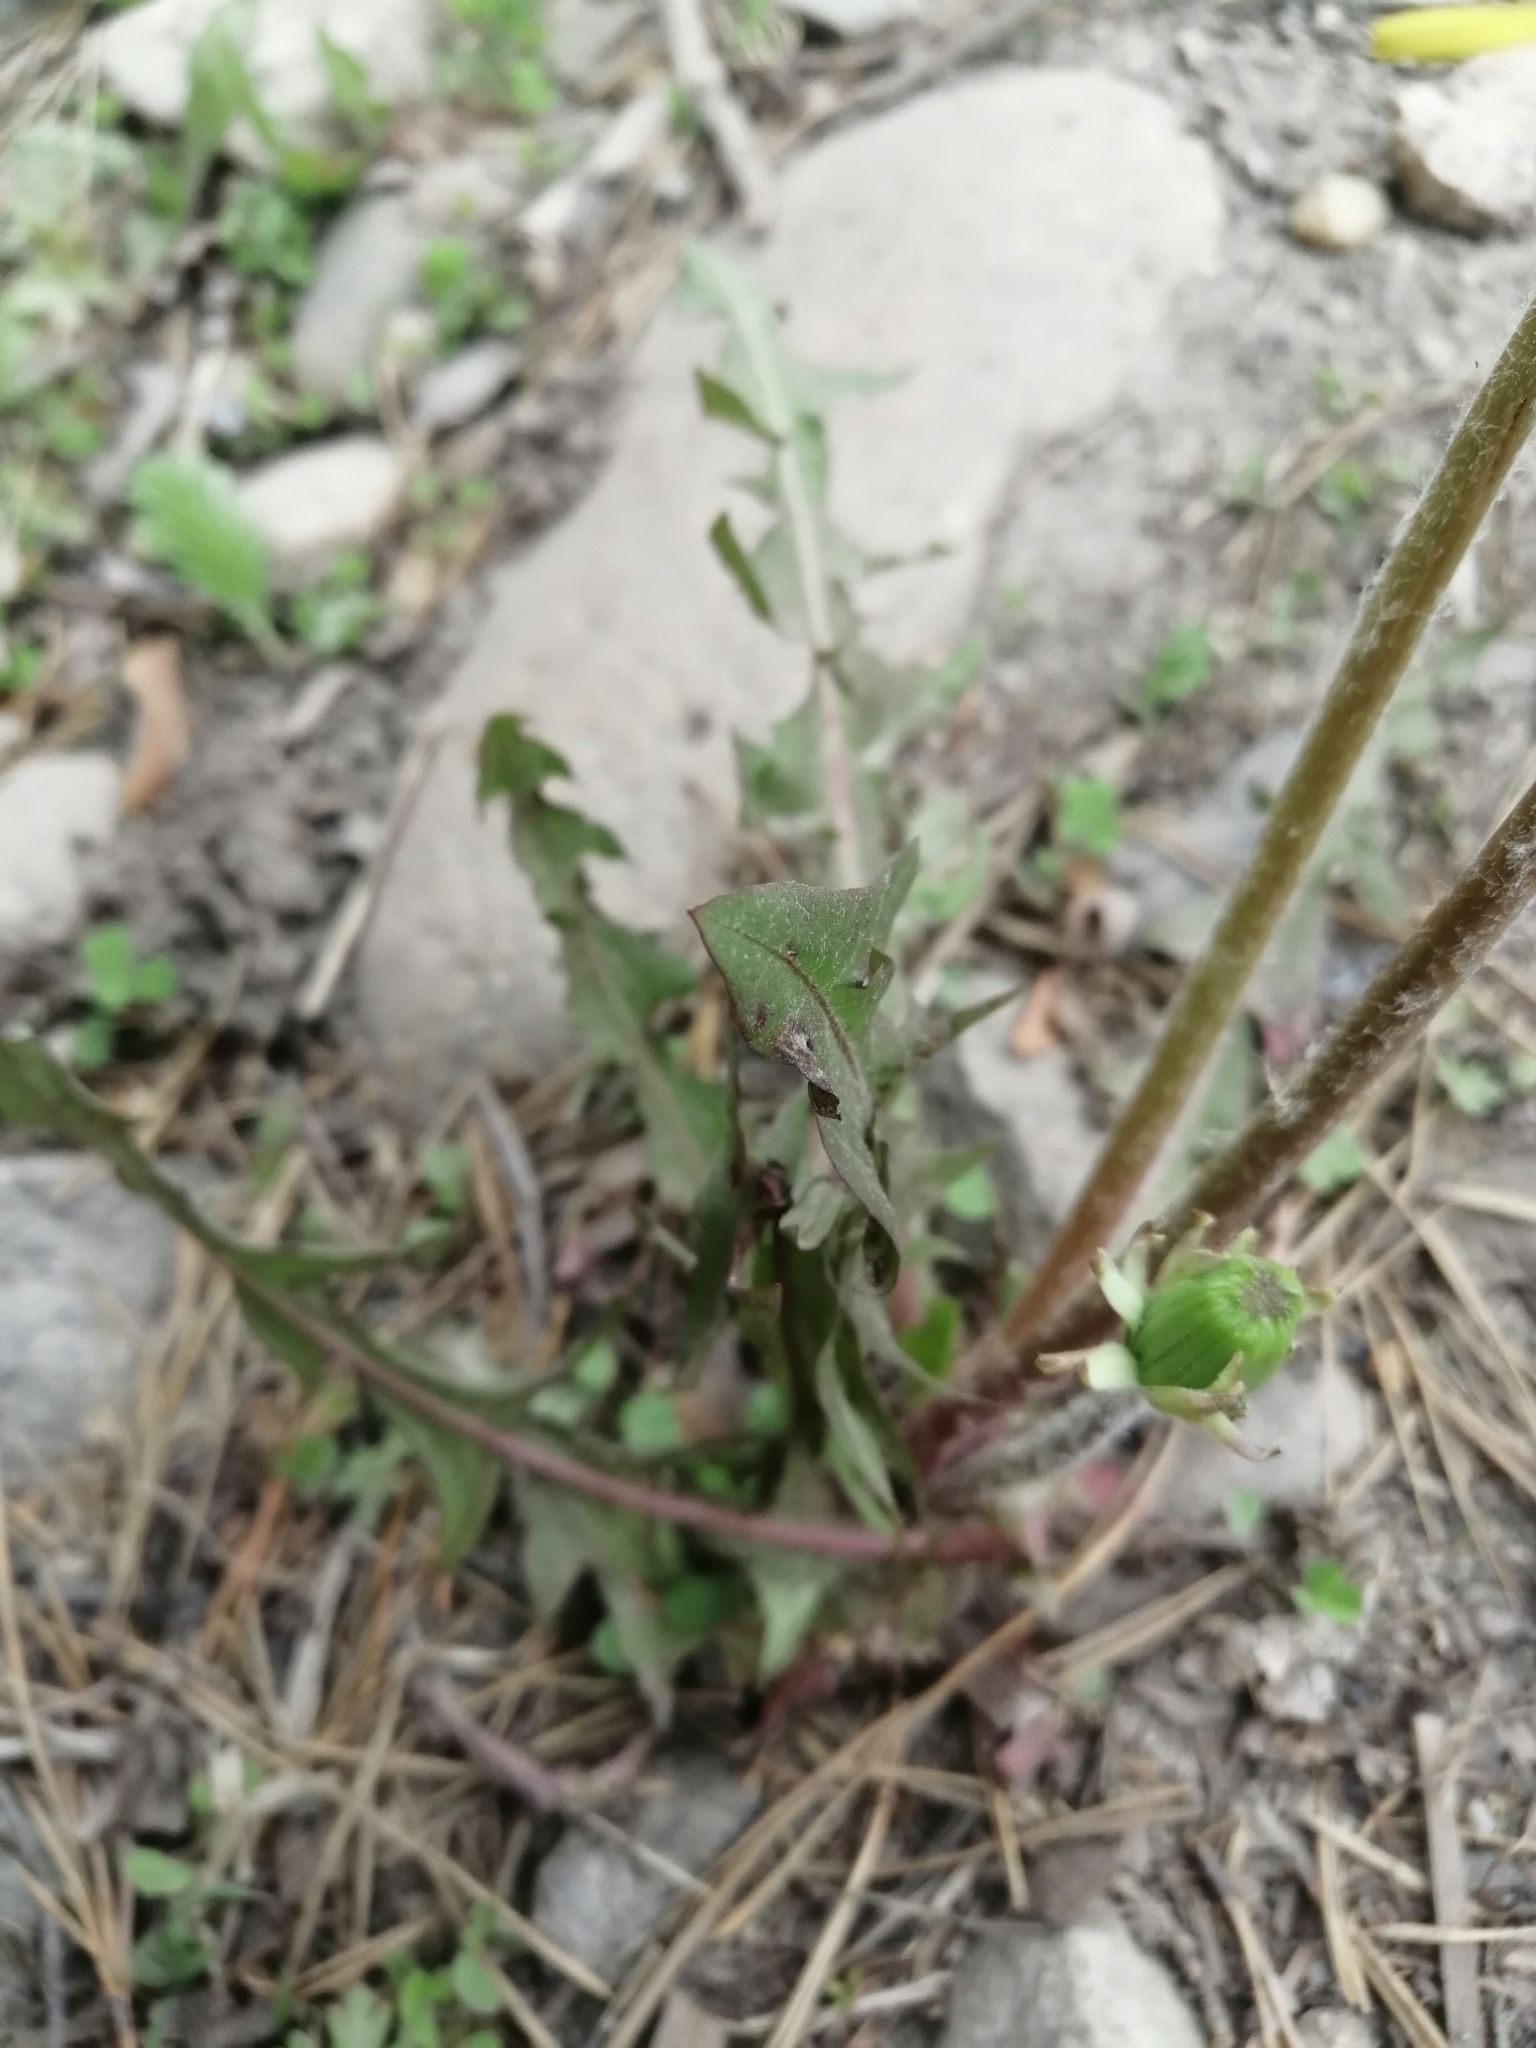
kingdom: Plantae
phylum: Tracheophyta
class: Magnoliopsida
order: Asterales
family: Asteraceae
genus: Taraxacum
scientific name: Taraxacum officinale
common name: Common dandelion
